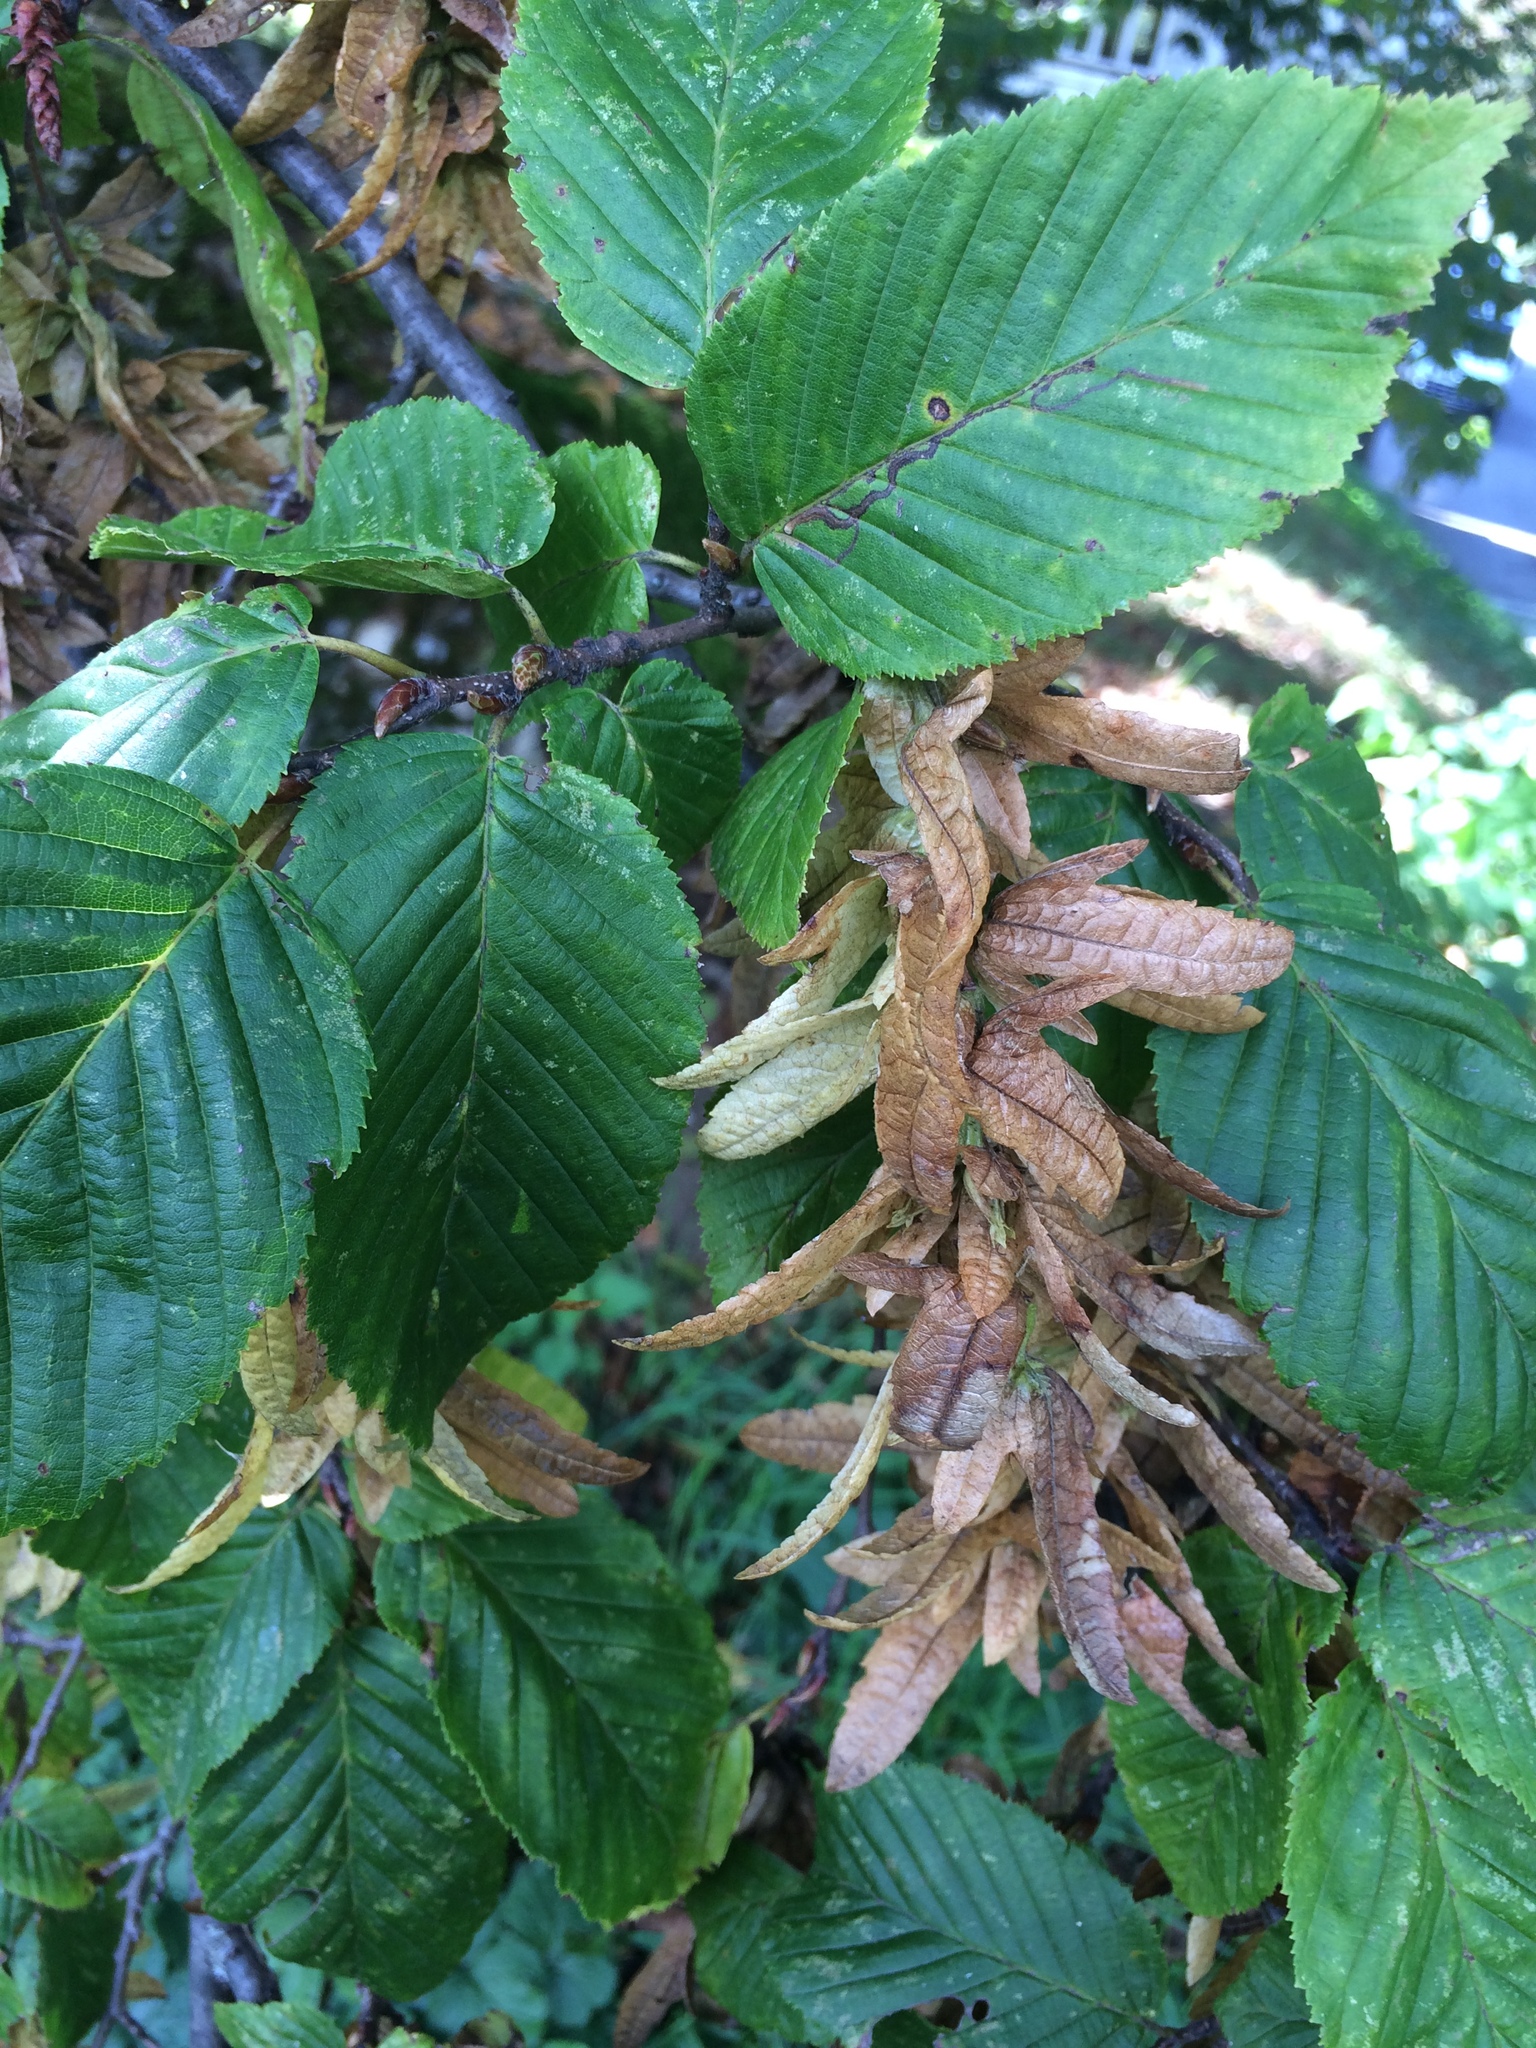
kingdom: Plantae
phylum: Tracheophyta
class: Magnoliopsida
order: Fagales
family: Betulaceae
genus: Carpinus
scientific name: Carpinus betulus
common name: Hornbeam
